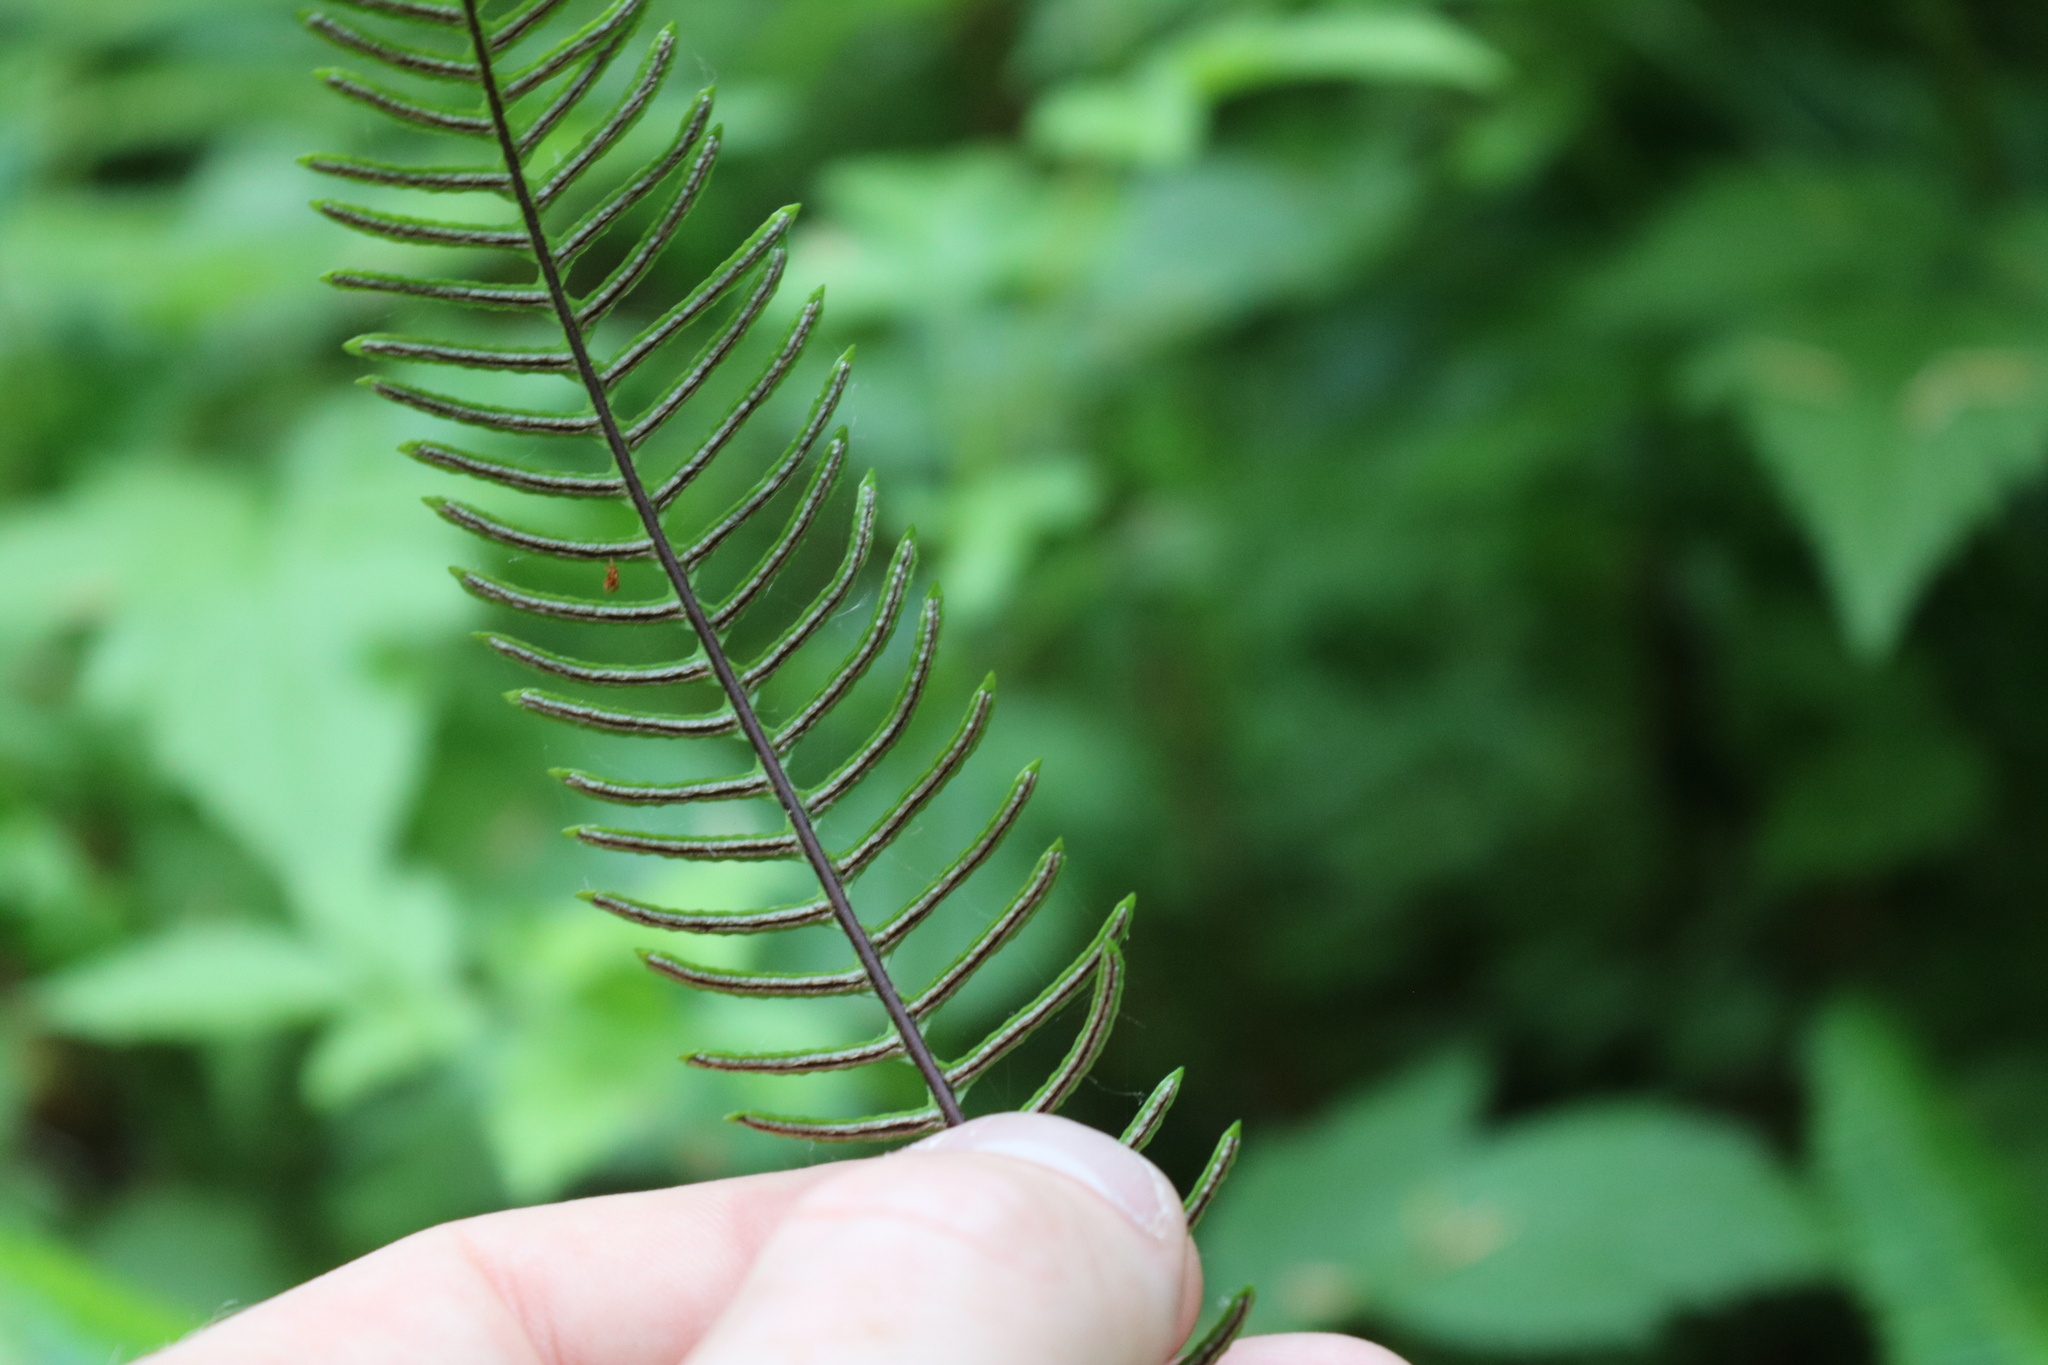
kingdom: Plantae
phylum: Tracheophyta
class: Polypodiopsida
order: Polypodiales
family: Blechnaceae
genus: Struthiopteris
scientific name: Struthiopteris spicant
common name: Deer fern
